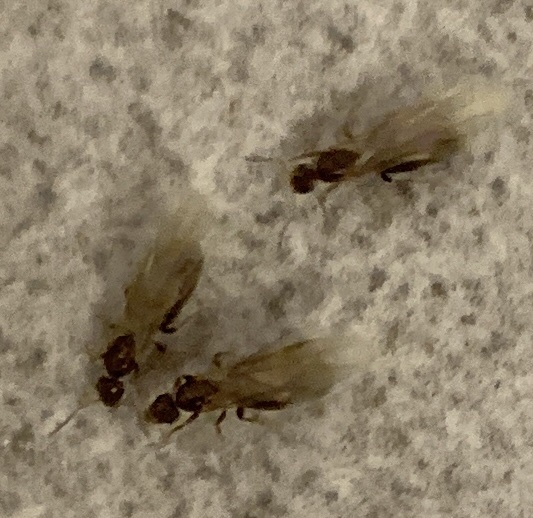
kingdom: Animalia
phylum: Arthropoda
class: Insecta
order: Hymenoptera
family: Formicidae
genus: Brachymyrmex
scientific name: Brachymyrmex patagonicus
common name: Dark rover ant
